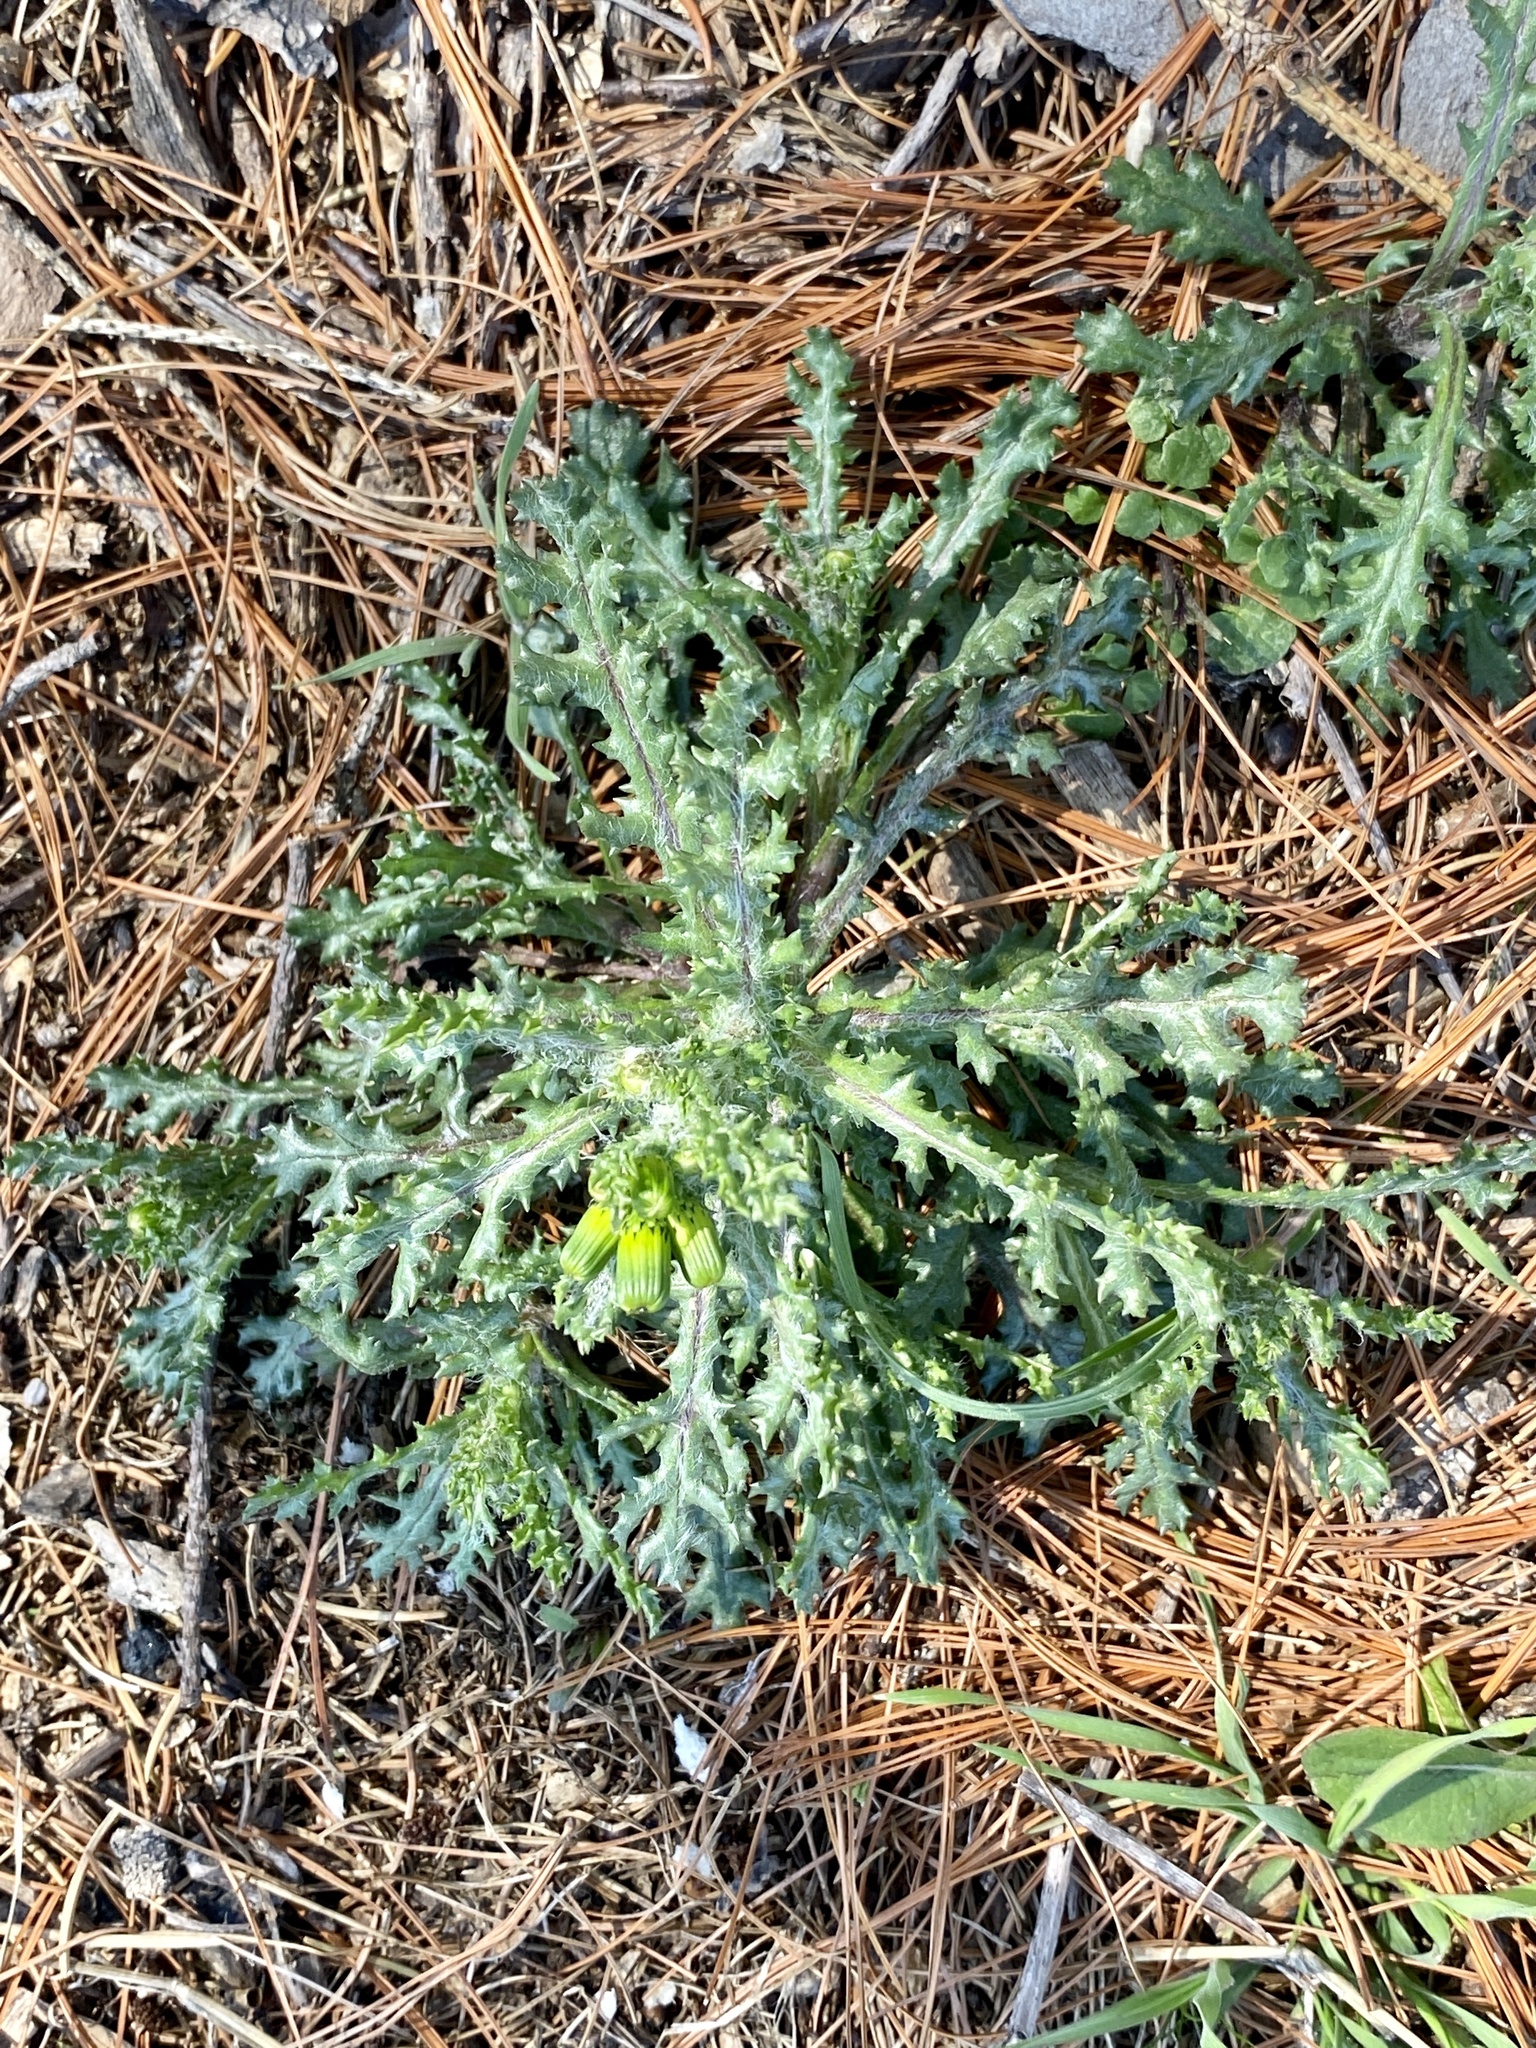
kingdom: Plantae
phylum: Tracheophyta
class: Magnoliopsida
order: Asterales
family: Asteraceae
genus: Senecio
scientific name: Senecio vulgaris
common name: Old-man-in-the-spring
